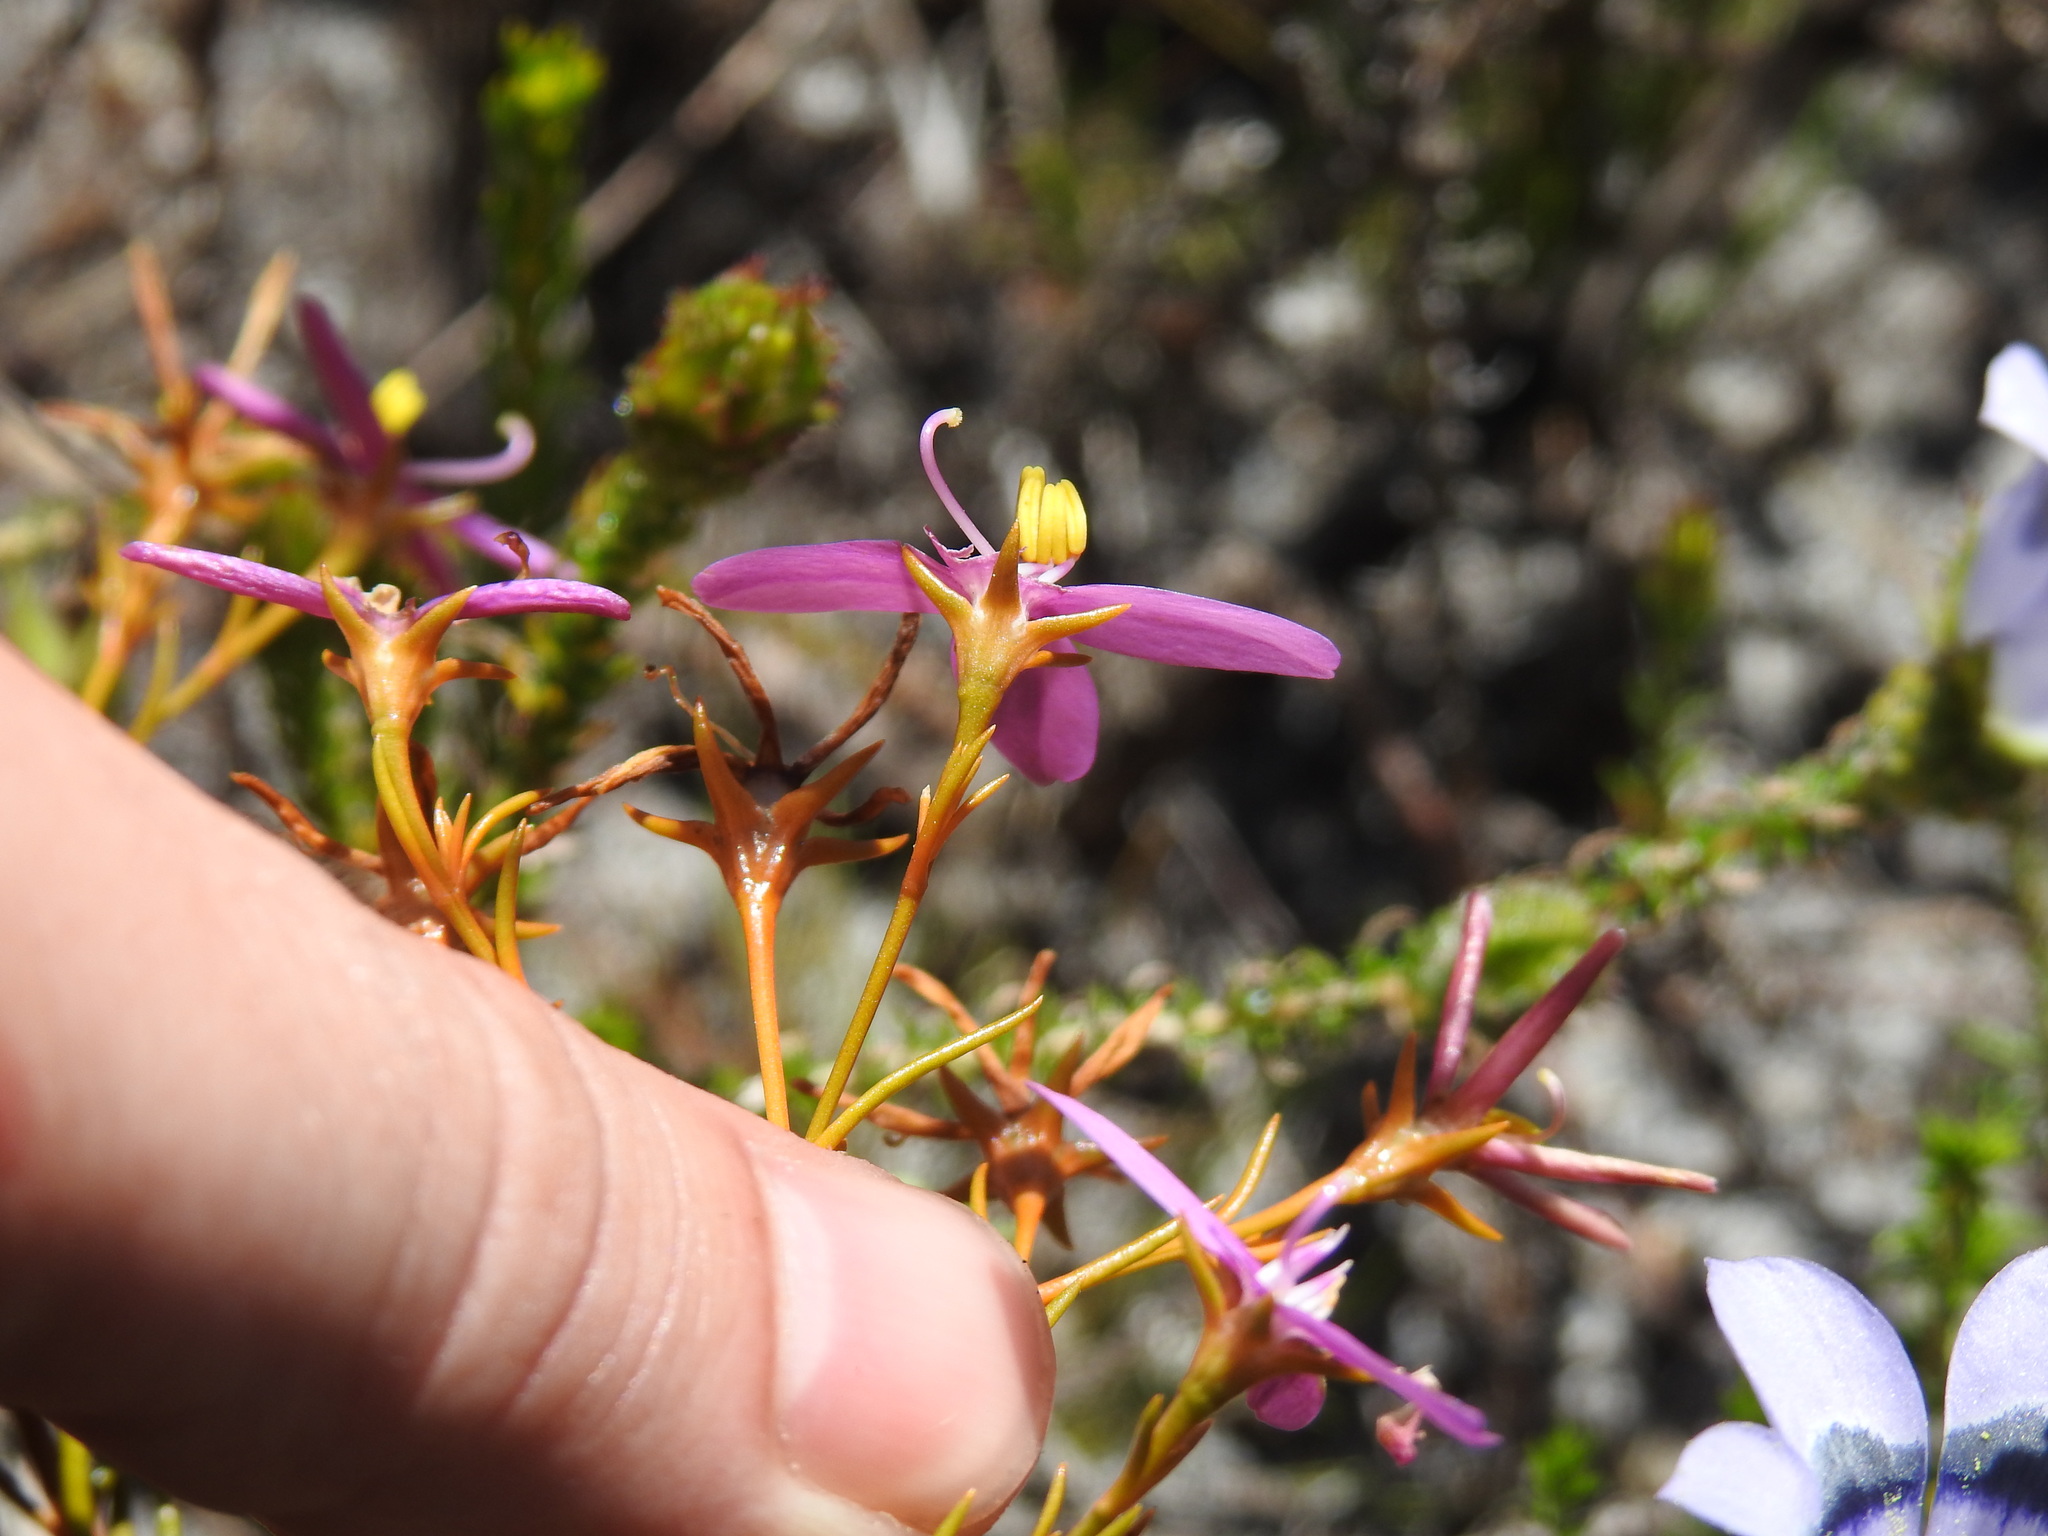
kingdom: Plantae
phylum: Tracheophyta
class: Magnoliopsida
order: Gentianales
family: Gentianaceae
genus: Chironia
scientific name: Chironia linoides
